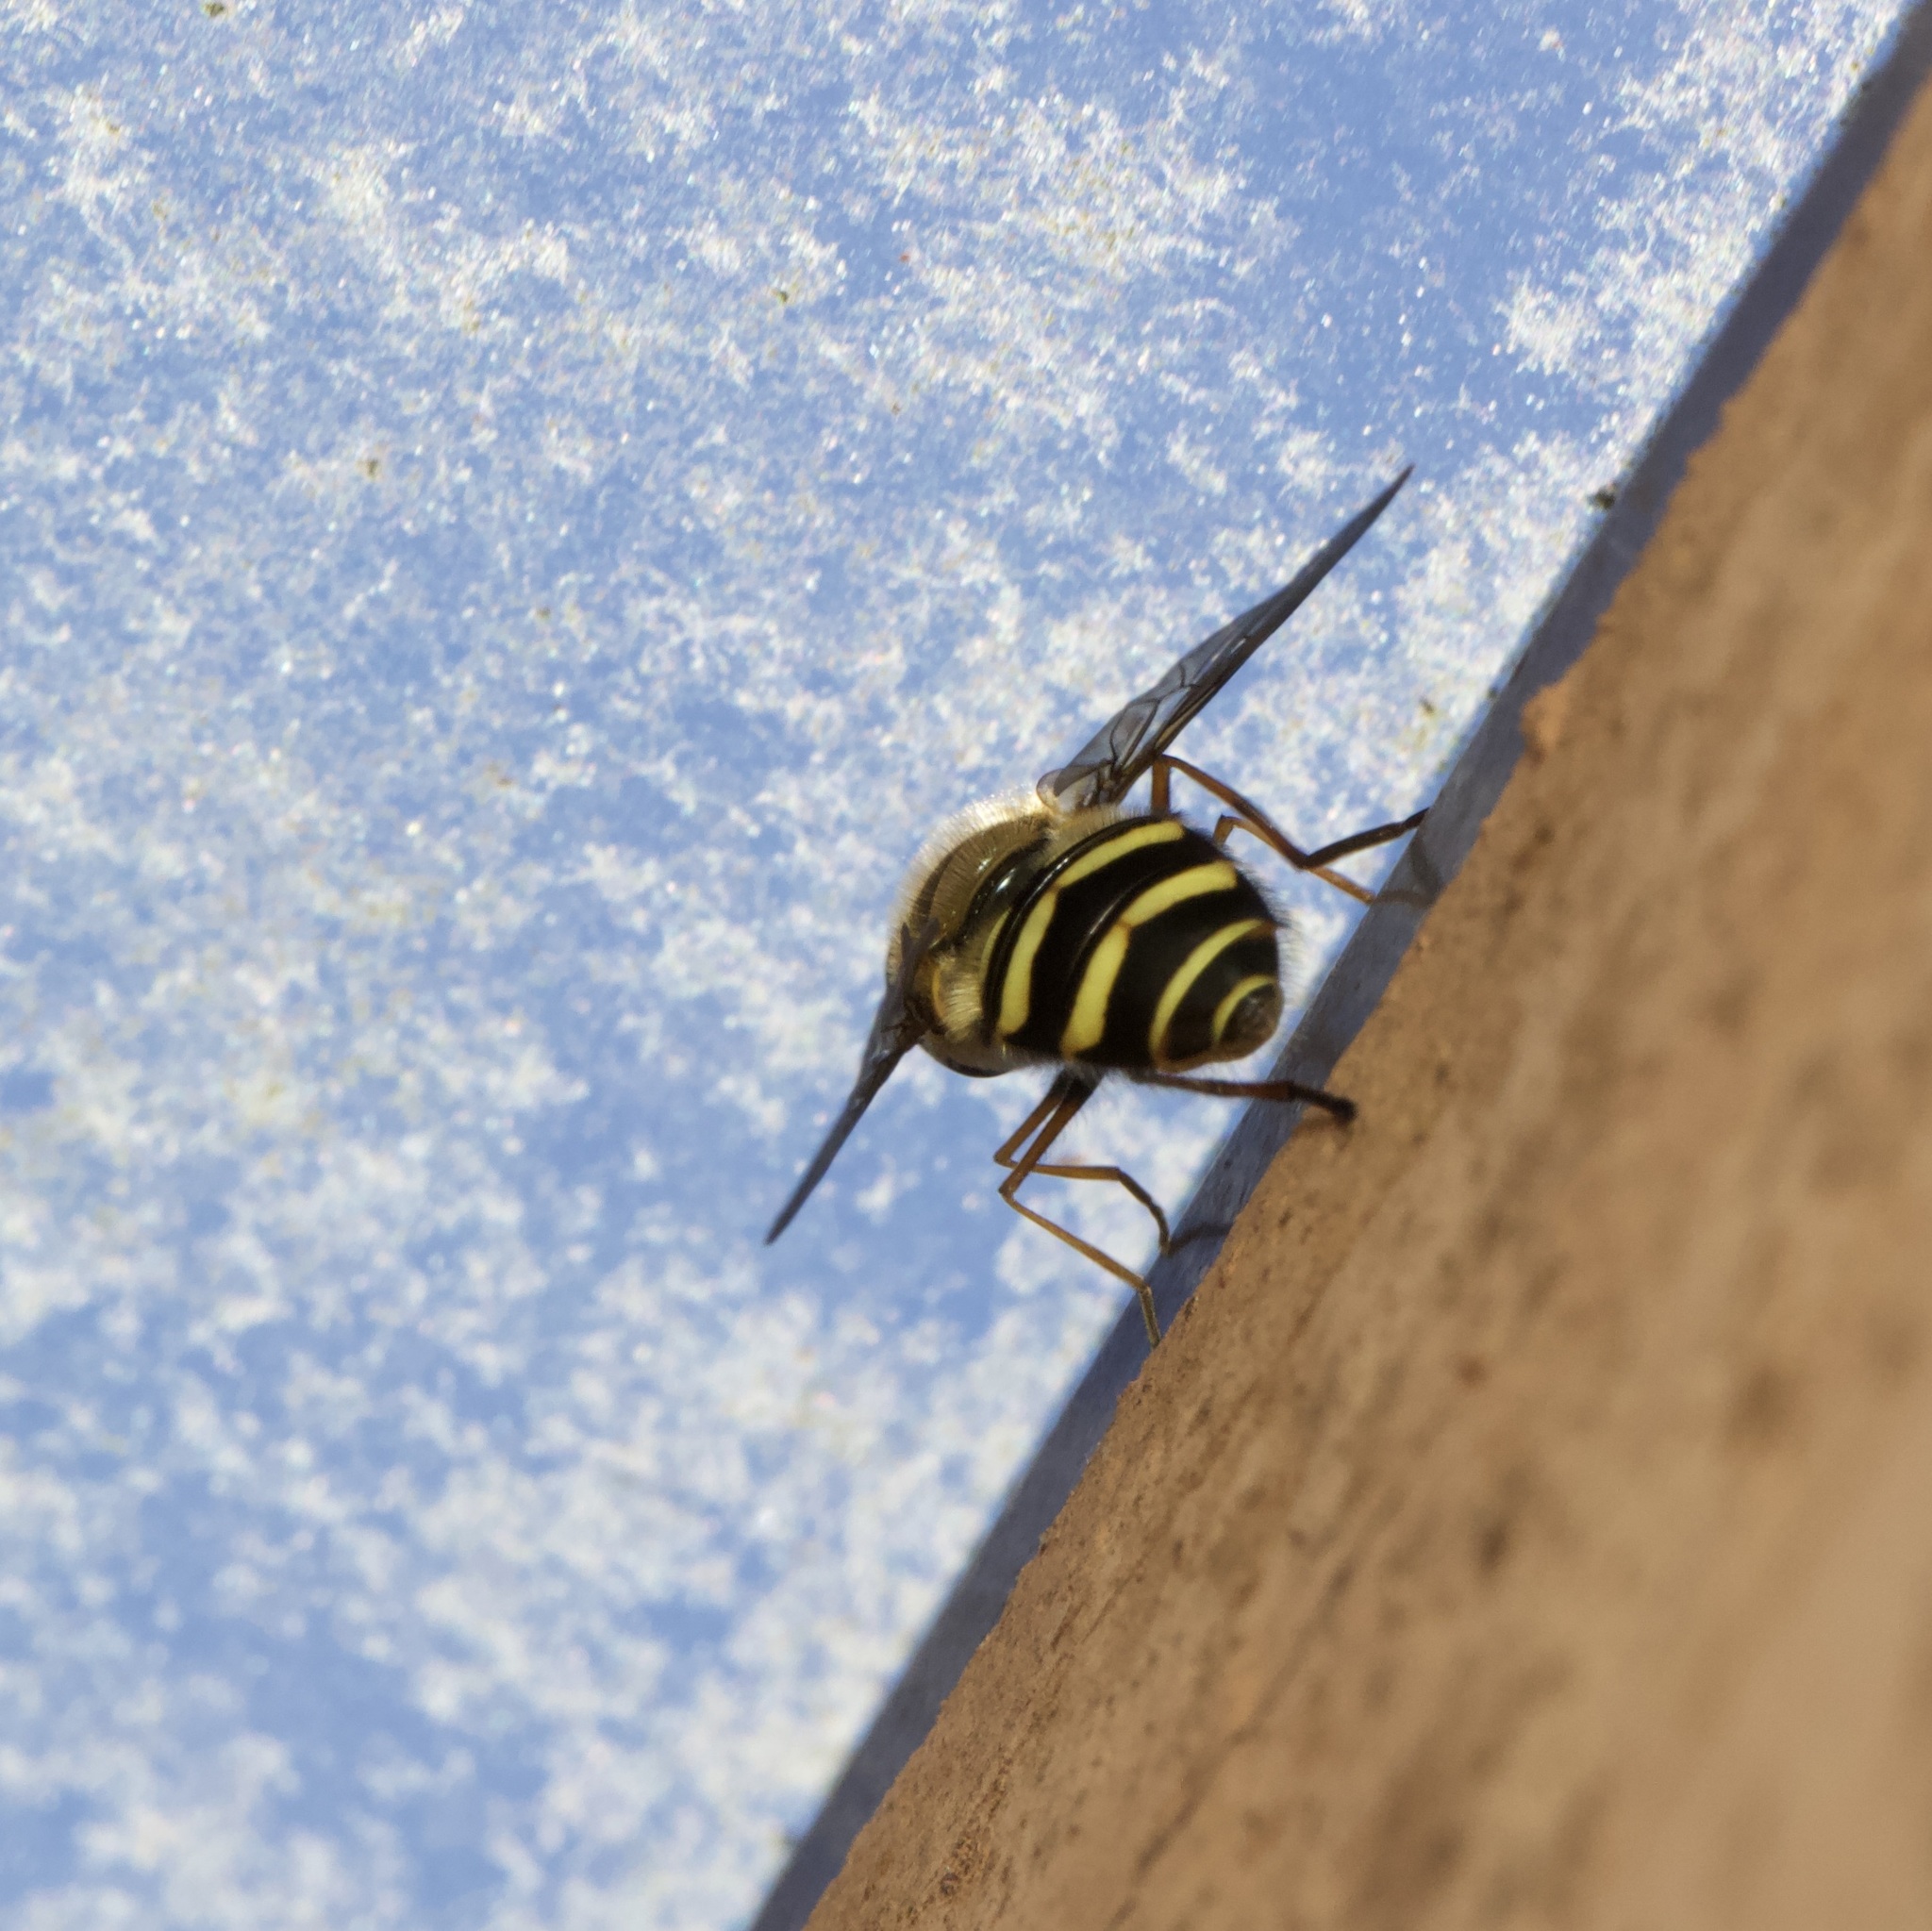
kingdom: Animalia
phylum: Arthropoda
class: Insecta
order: Diptera
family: Syrphidae
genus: Syrphus
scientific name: Syrphus torvus
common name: Hairy-eyed flower fly
